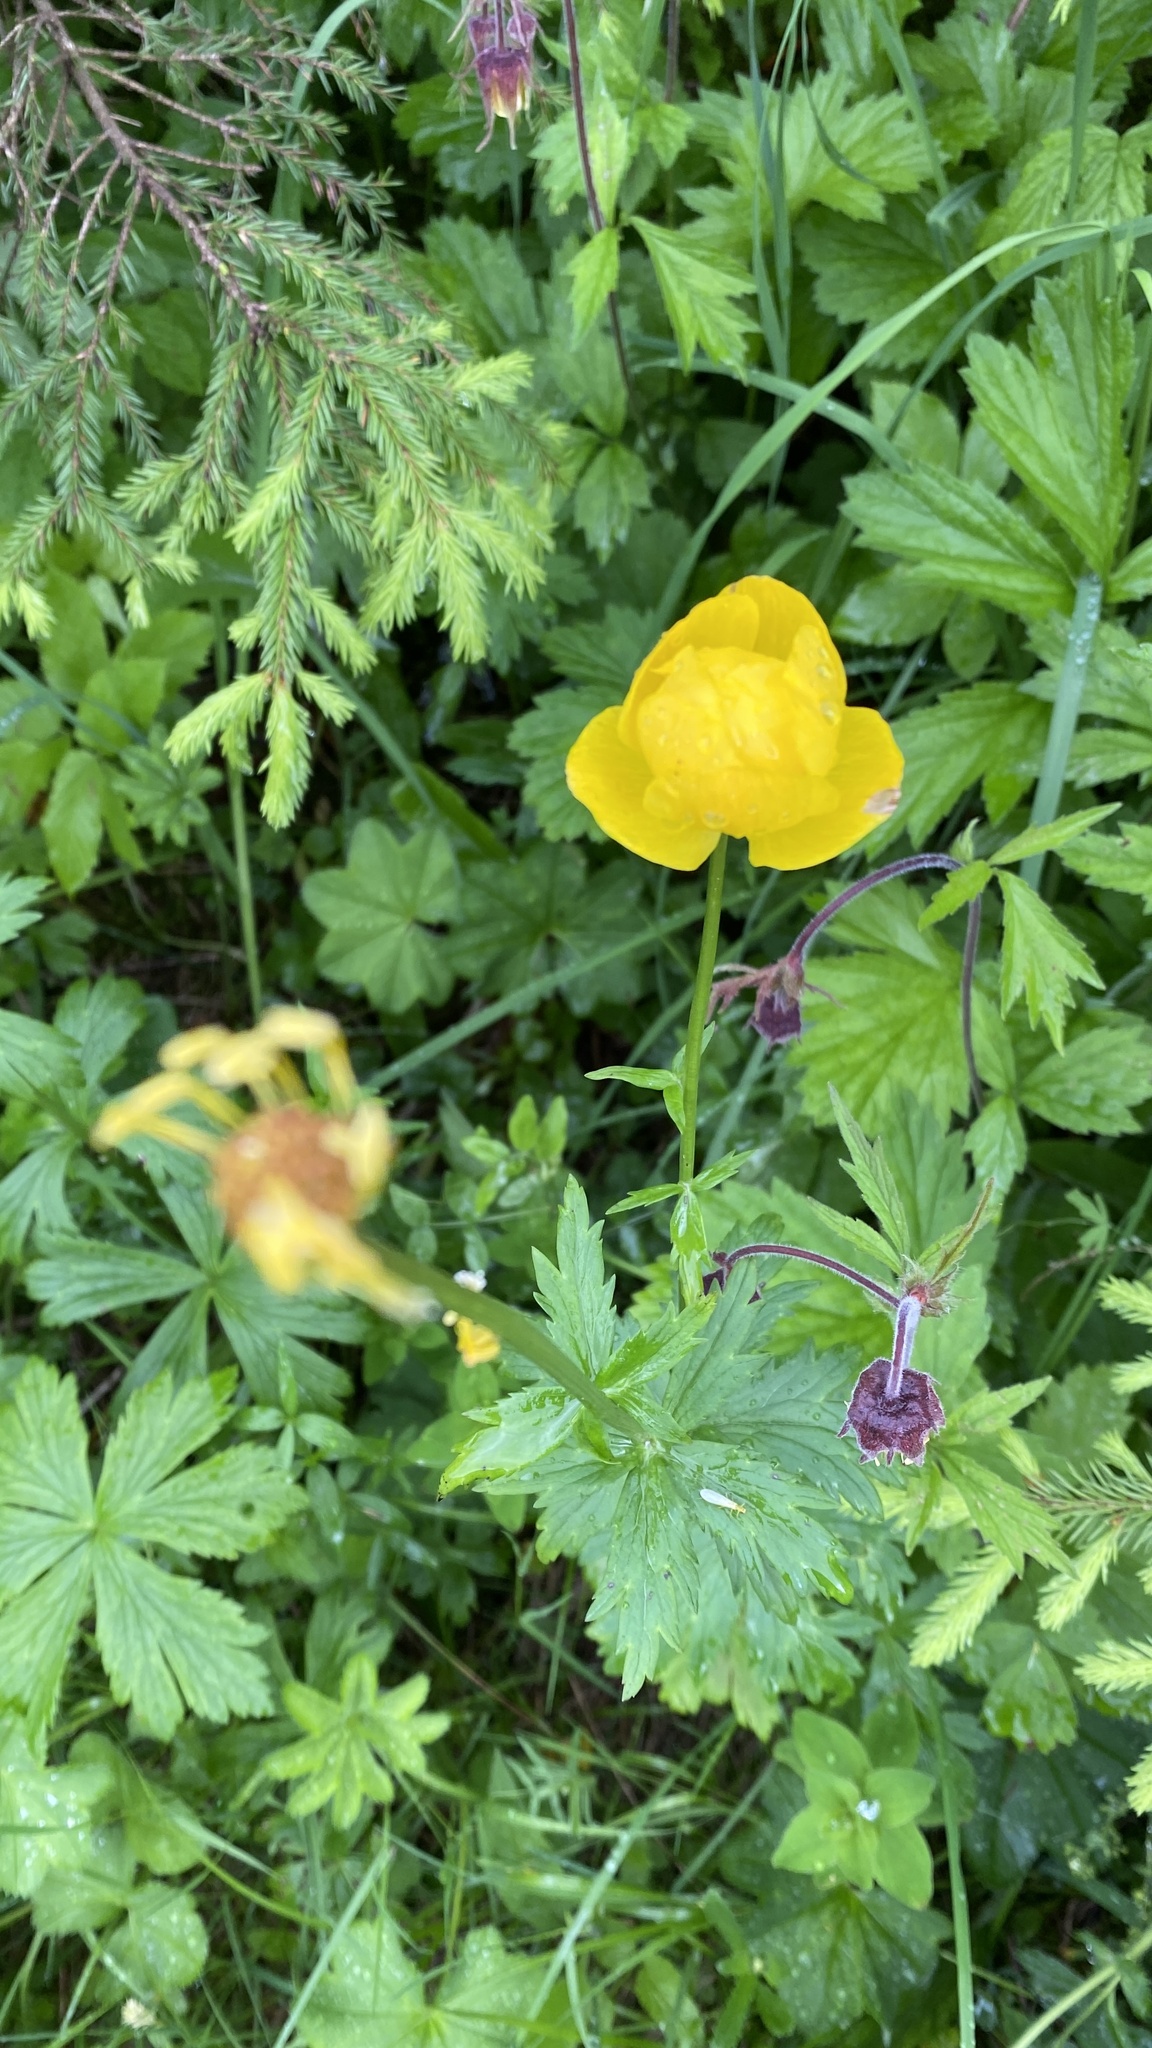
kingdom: Plantae
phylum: Tracheophyta
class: Magnoliopsida
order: Ranunculales
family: Ranunculaceae
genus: Trollius
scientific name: Trollius europaeus
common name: European globeflower
